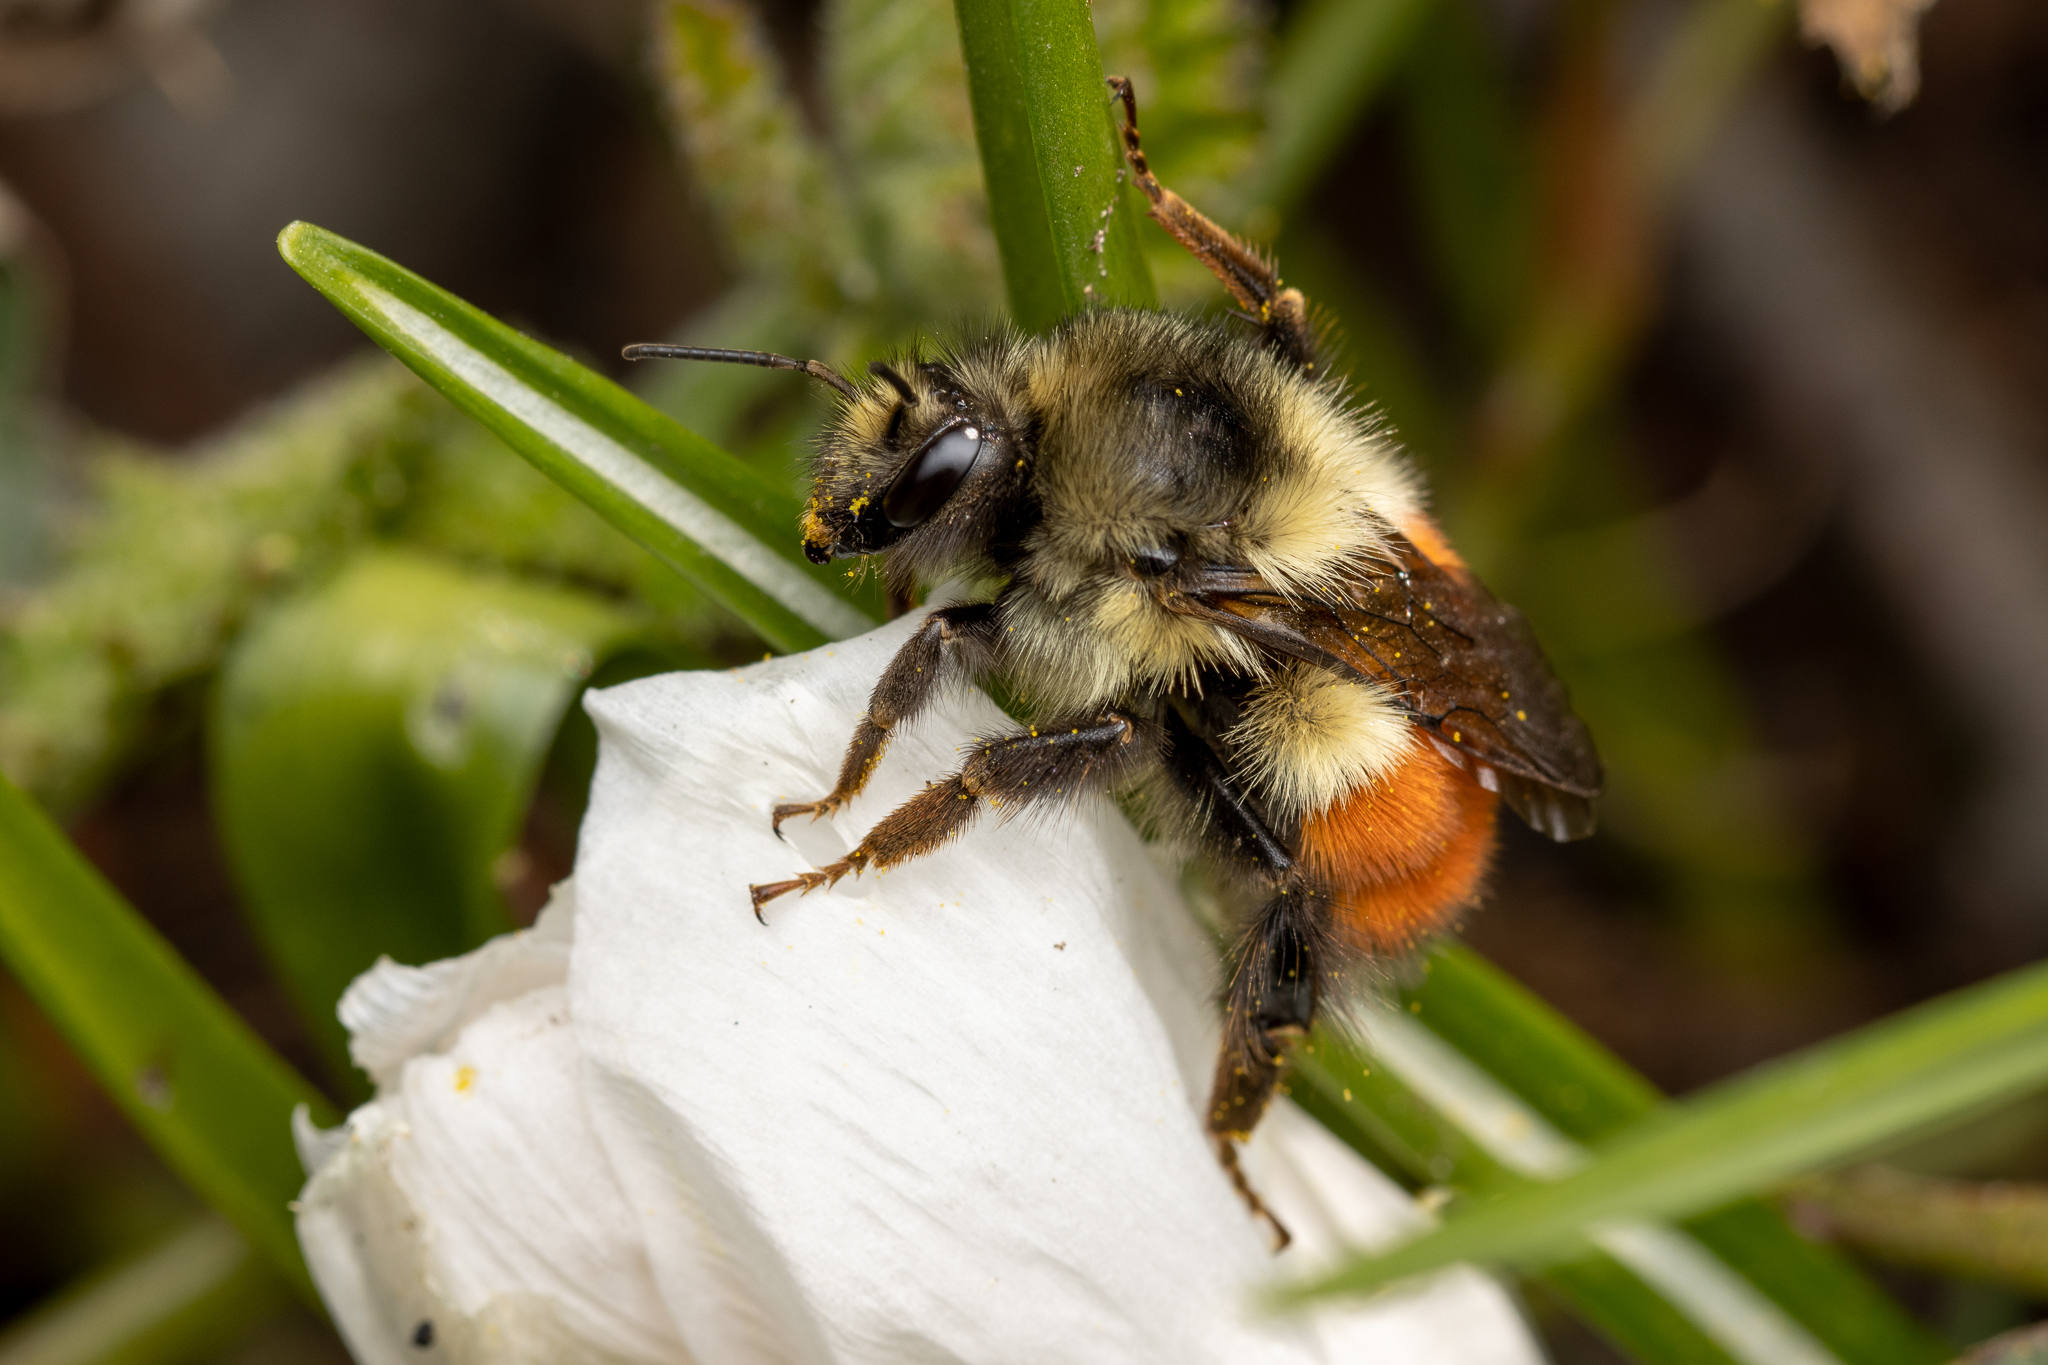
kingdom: Animalia
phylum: Arthropoda
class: Insecta
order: Hymenoptera
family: Apidae
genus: Bombus
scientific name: Bombus melanopygus
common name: Black tail bumble bee
